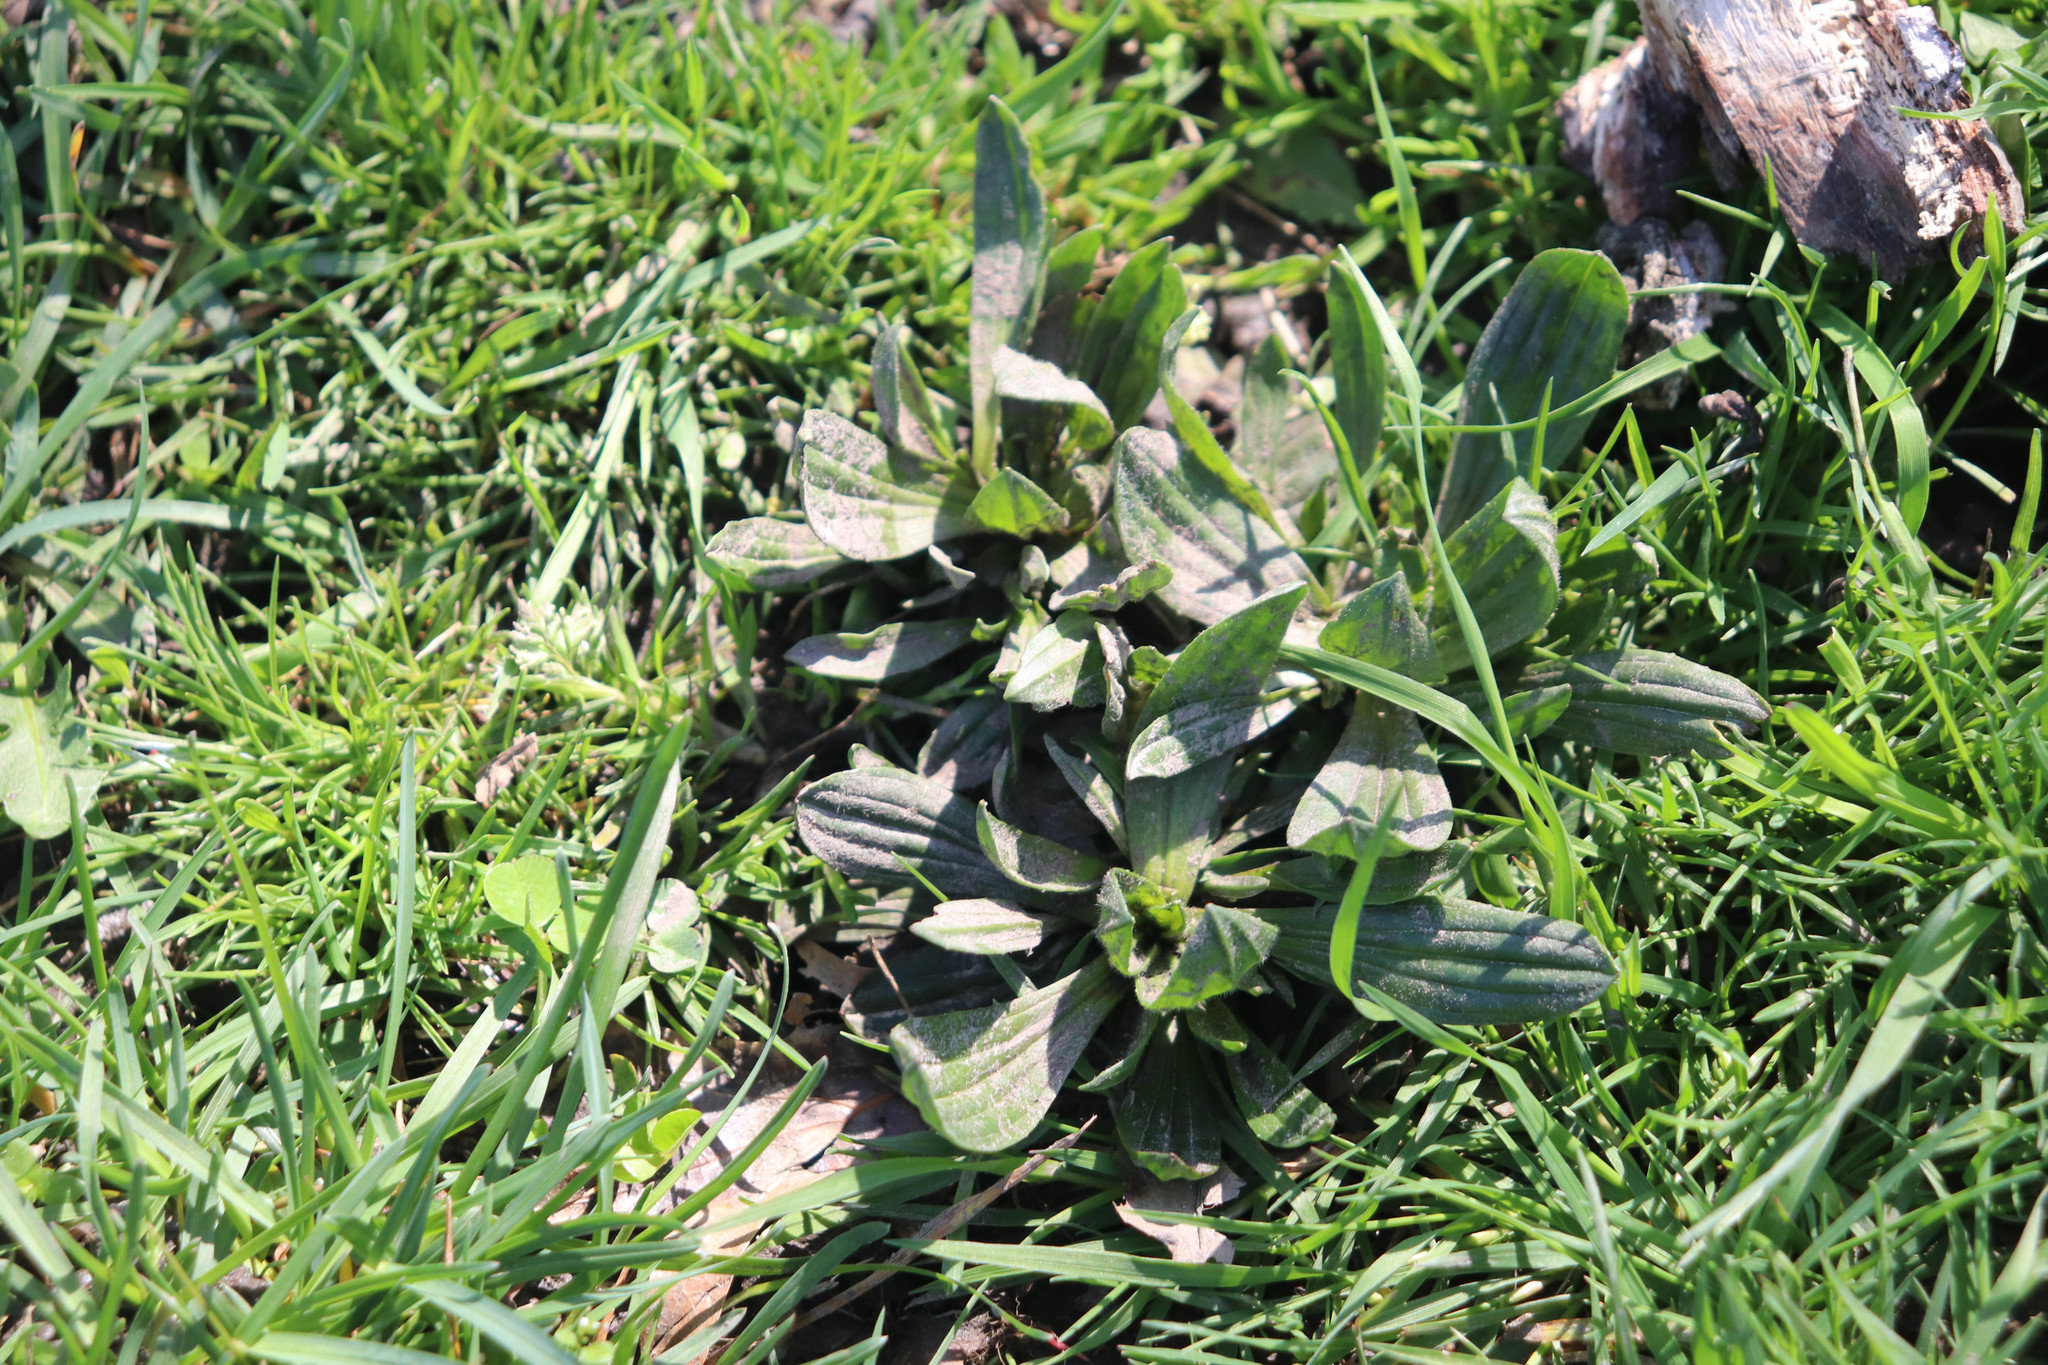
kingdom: Plantae
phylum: Tracheophyta
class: Magnoliopsida
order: Lamiales
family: Plantaginaceae
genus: Plantago
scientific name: Plantago lanceolata
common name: Ribwort plantain
